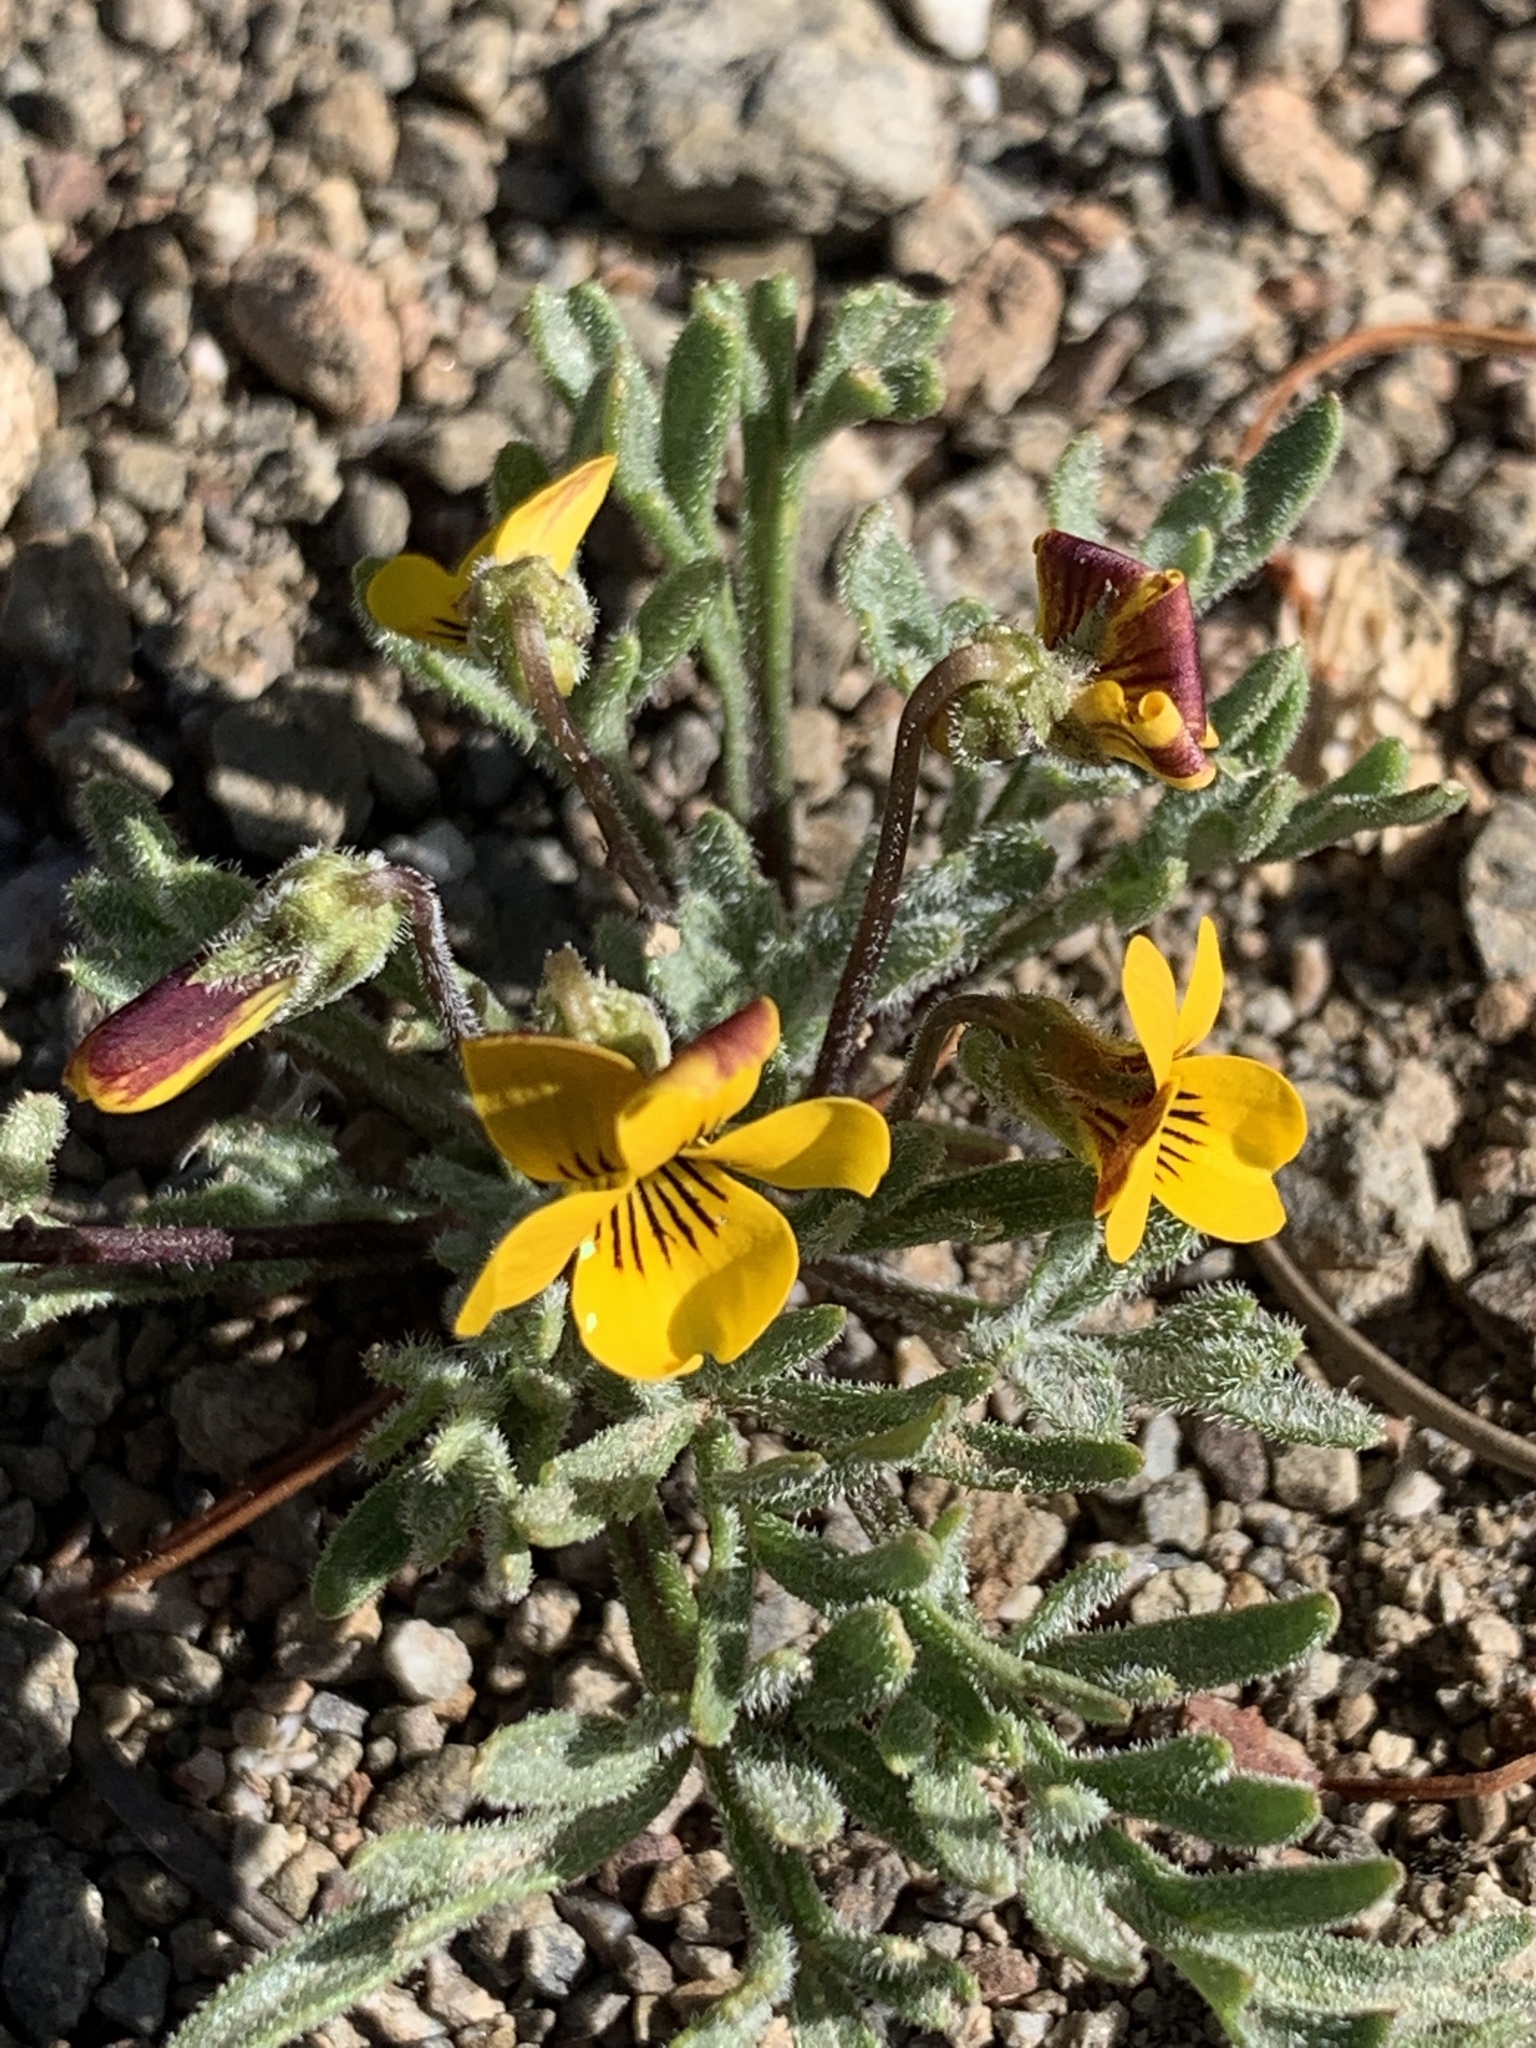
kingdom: Plantae
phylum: Tracheophyta
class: Magnoliopsida
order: Malpighiales
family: Violaceae
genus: Viola
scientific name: Viola douglasii
